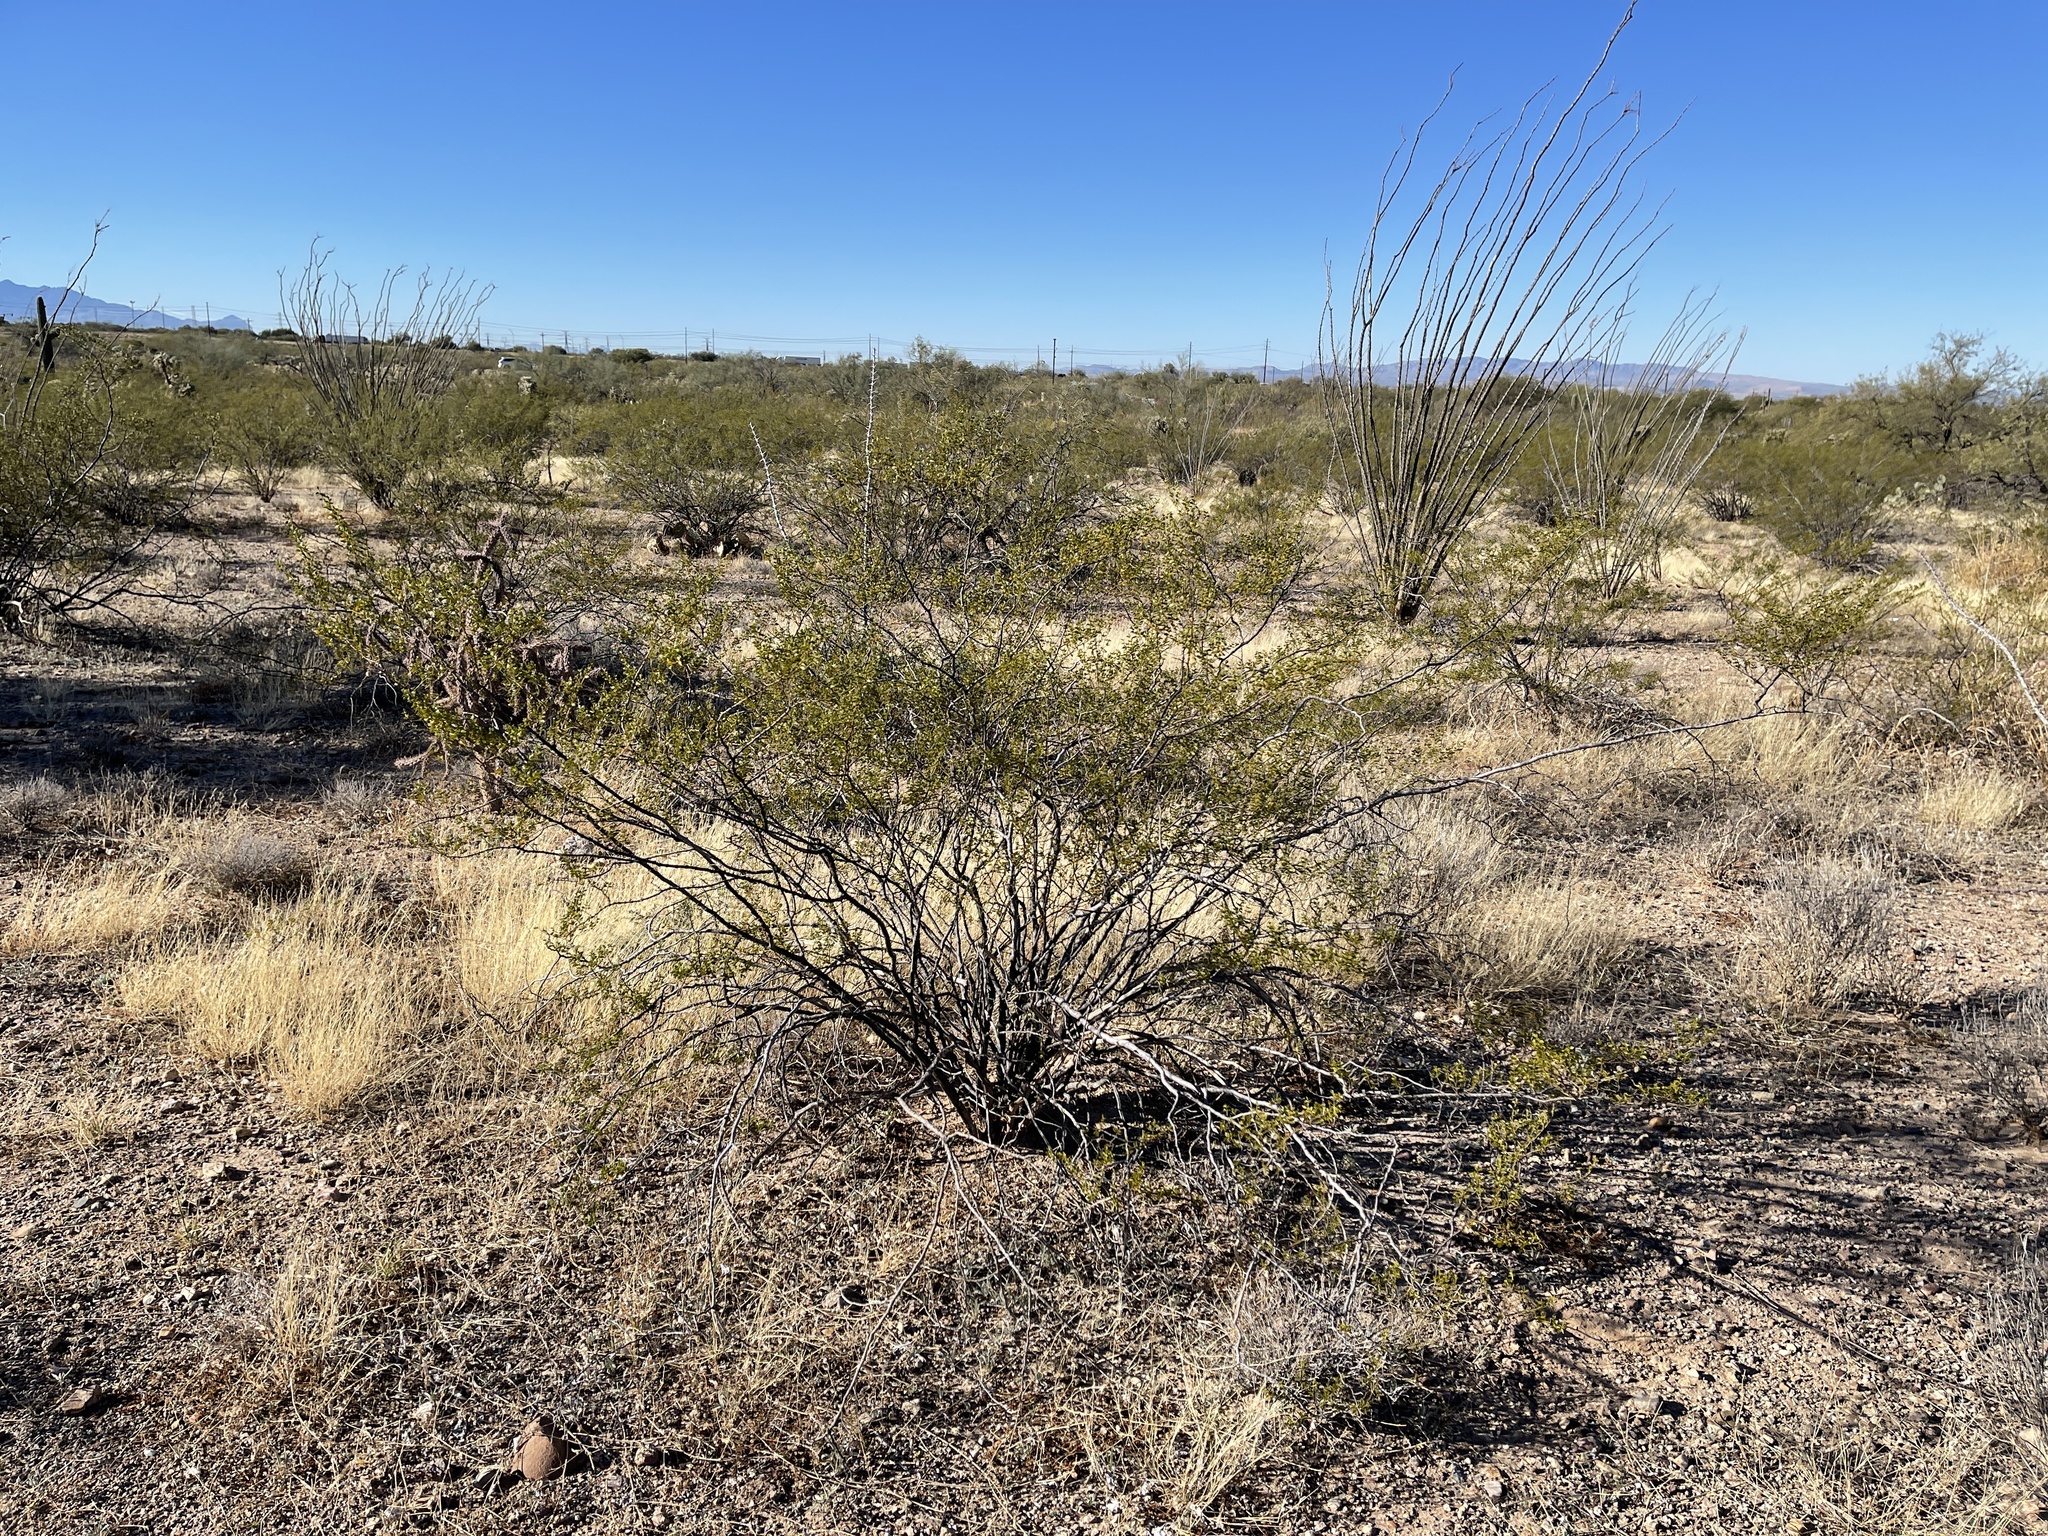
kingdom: Plantae
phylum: Tracheophyta
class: Magnoliopsida
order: Zygophyllales
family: Zygophyllaceae
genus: Larrea
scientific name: Larrea tridentata
